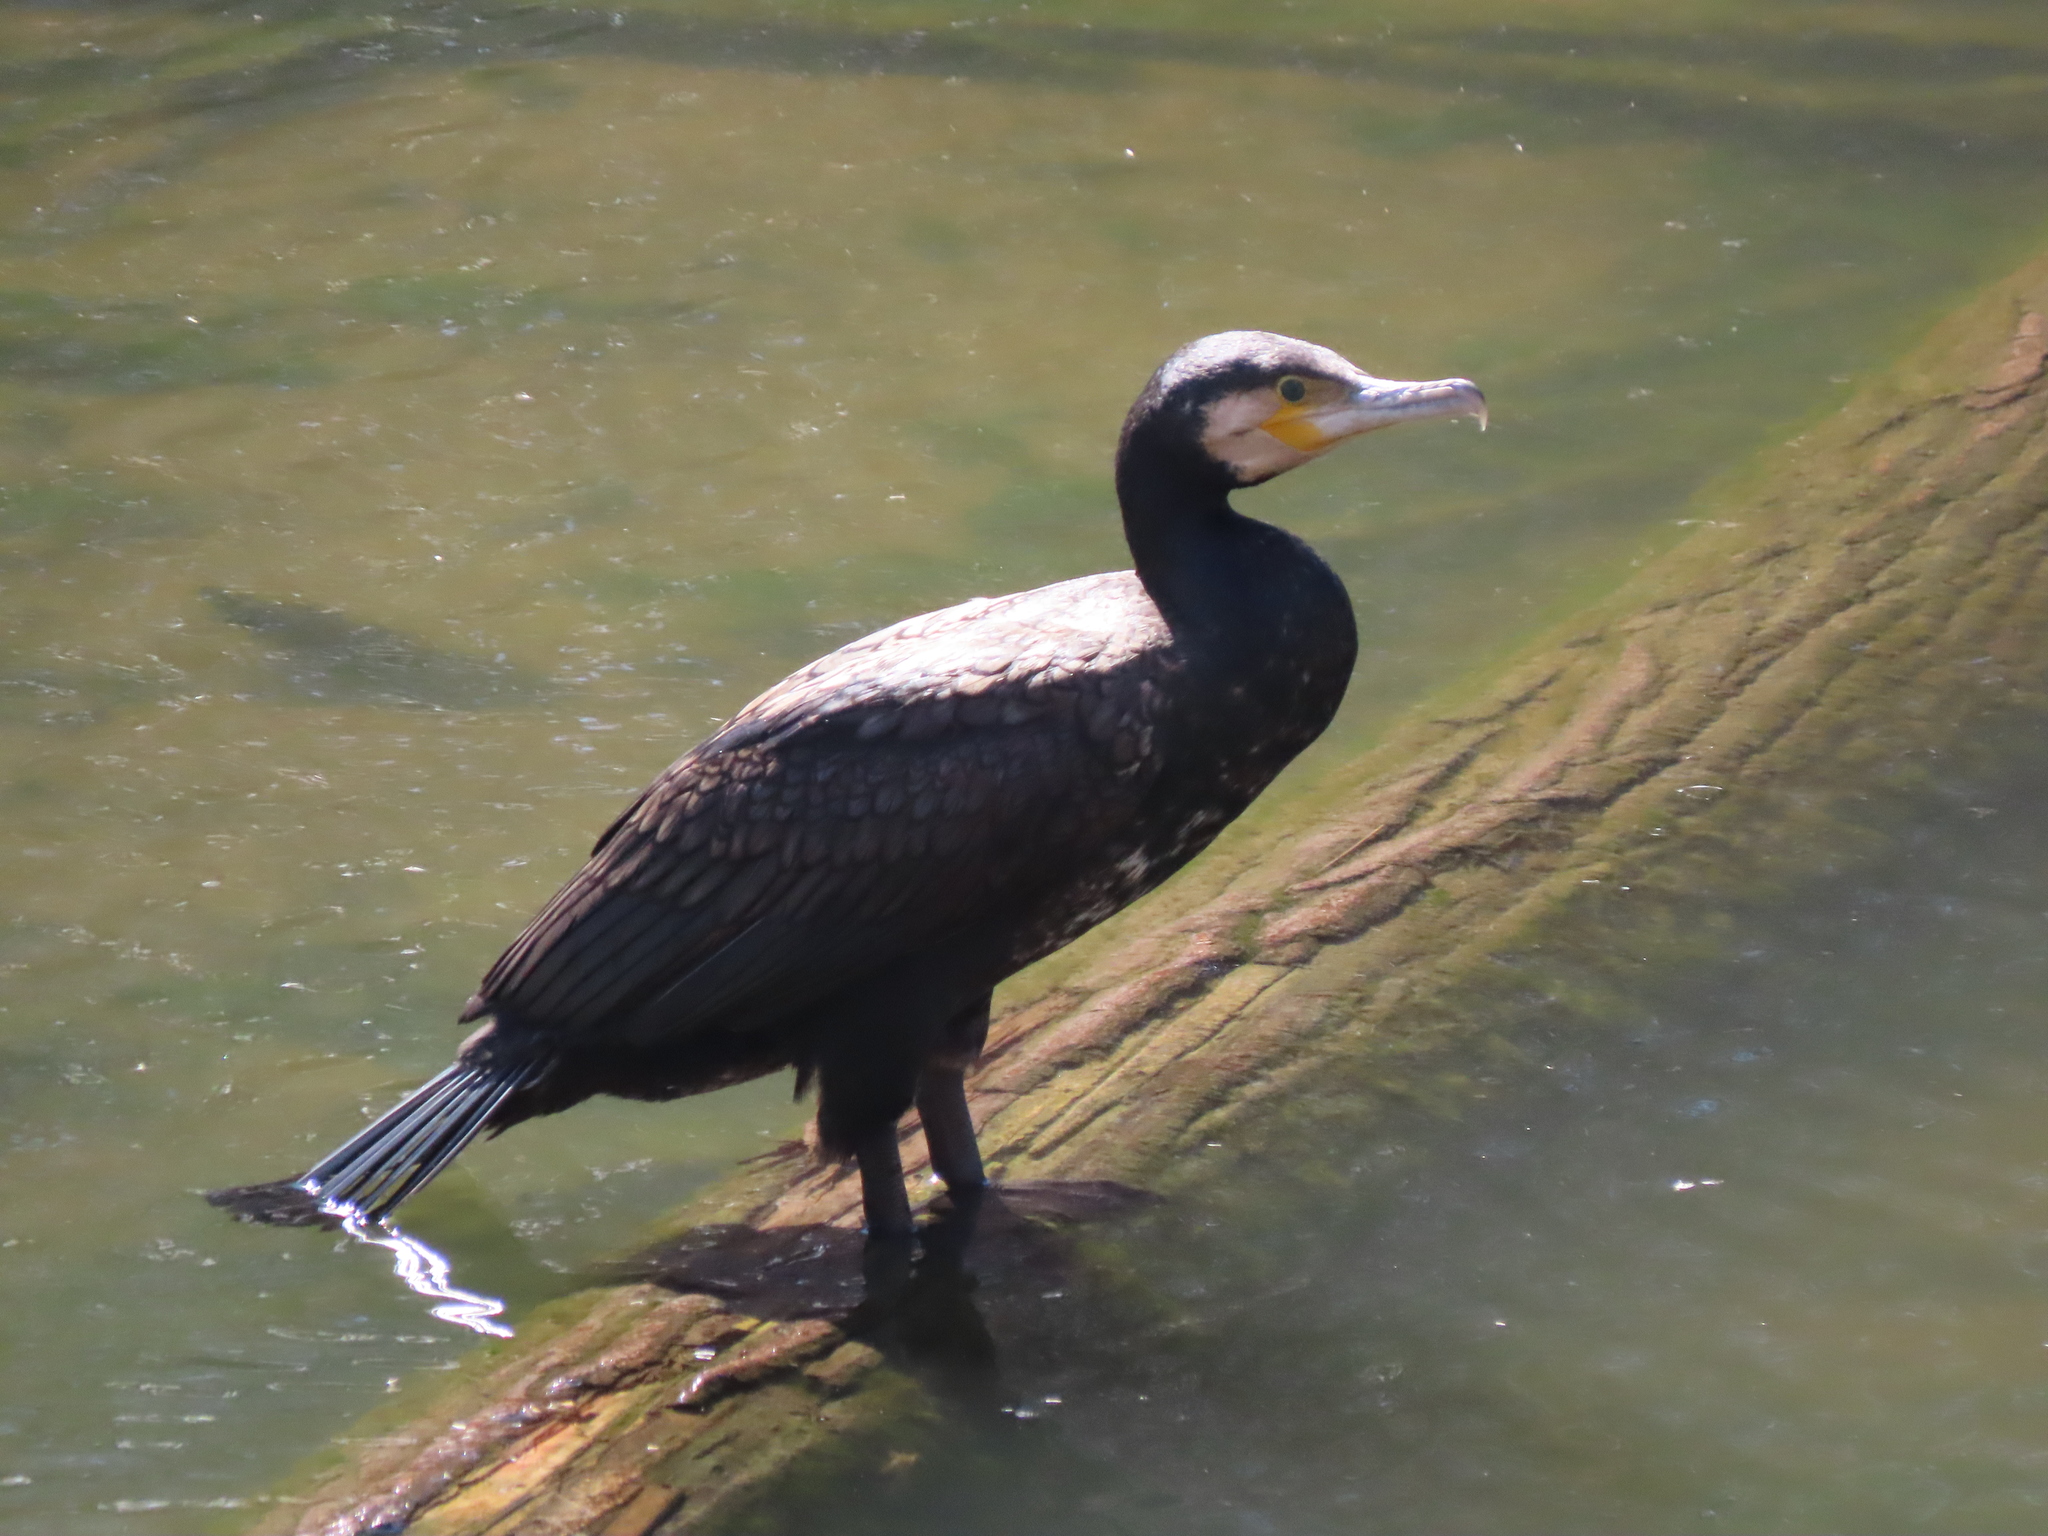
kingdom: Animalia
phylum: Chordata
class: Aves
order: Suliformes
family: Phalacrocoracidae
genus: Phalacrocorax
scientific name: Phalacrocorax carbo
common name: Great cormorant
